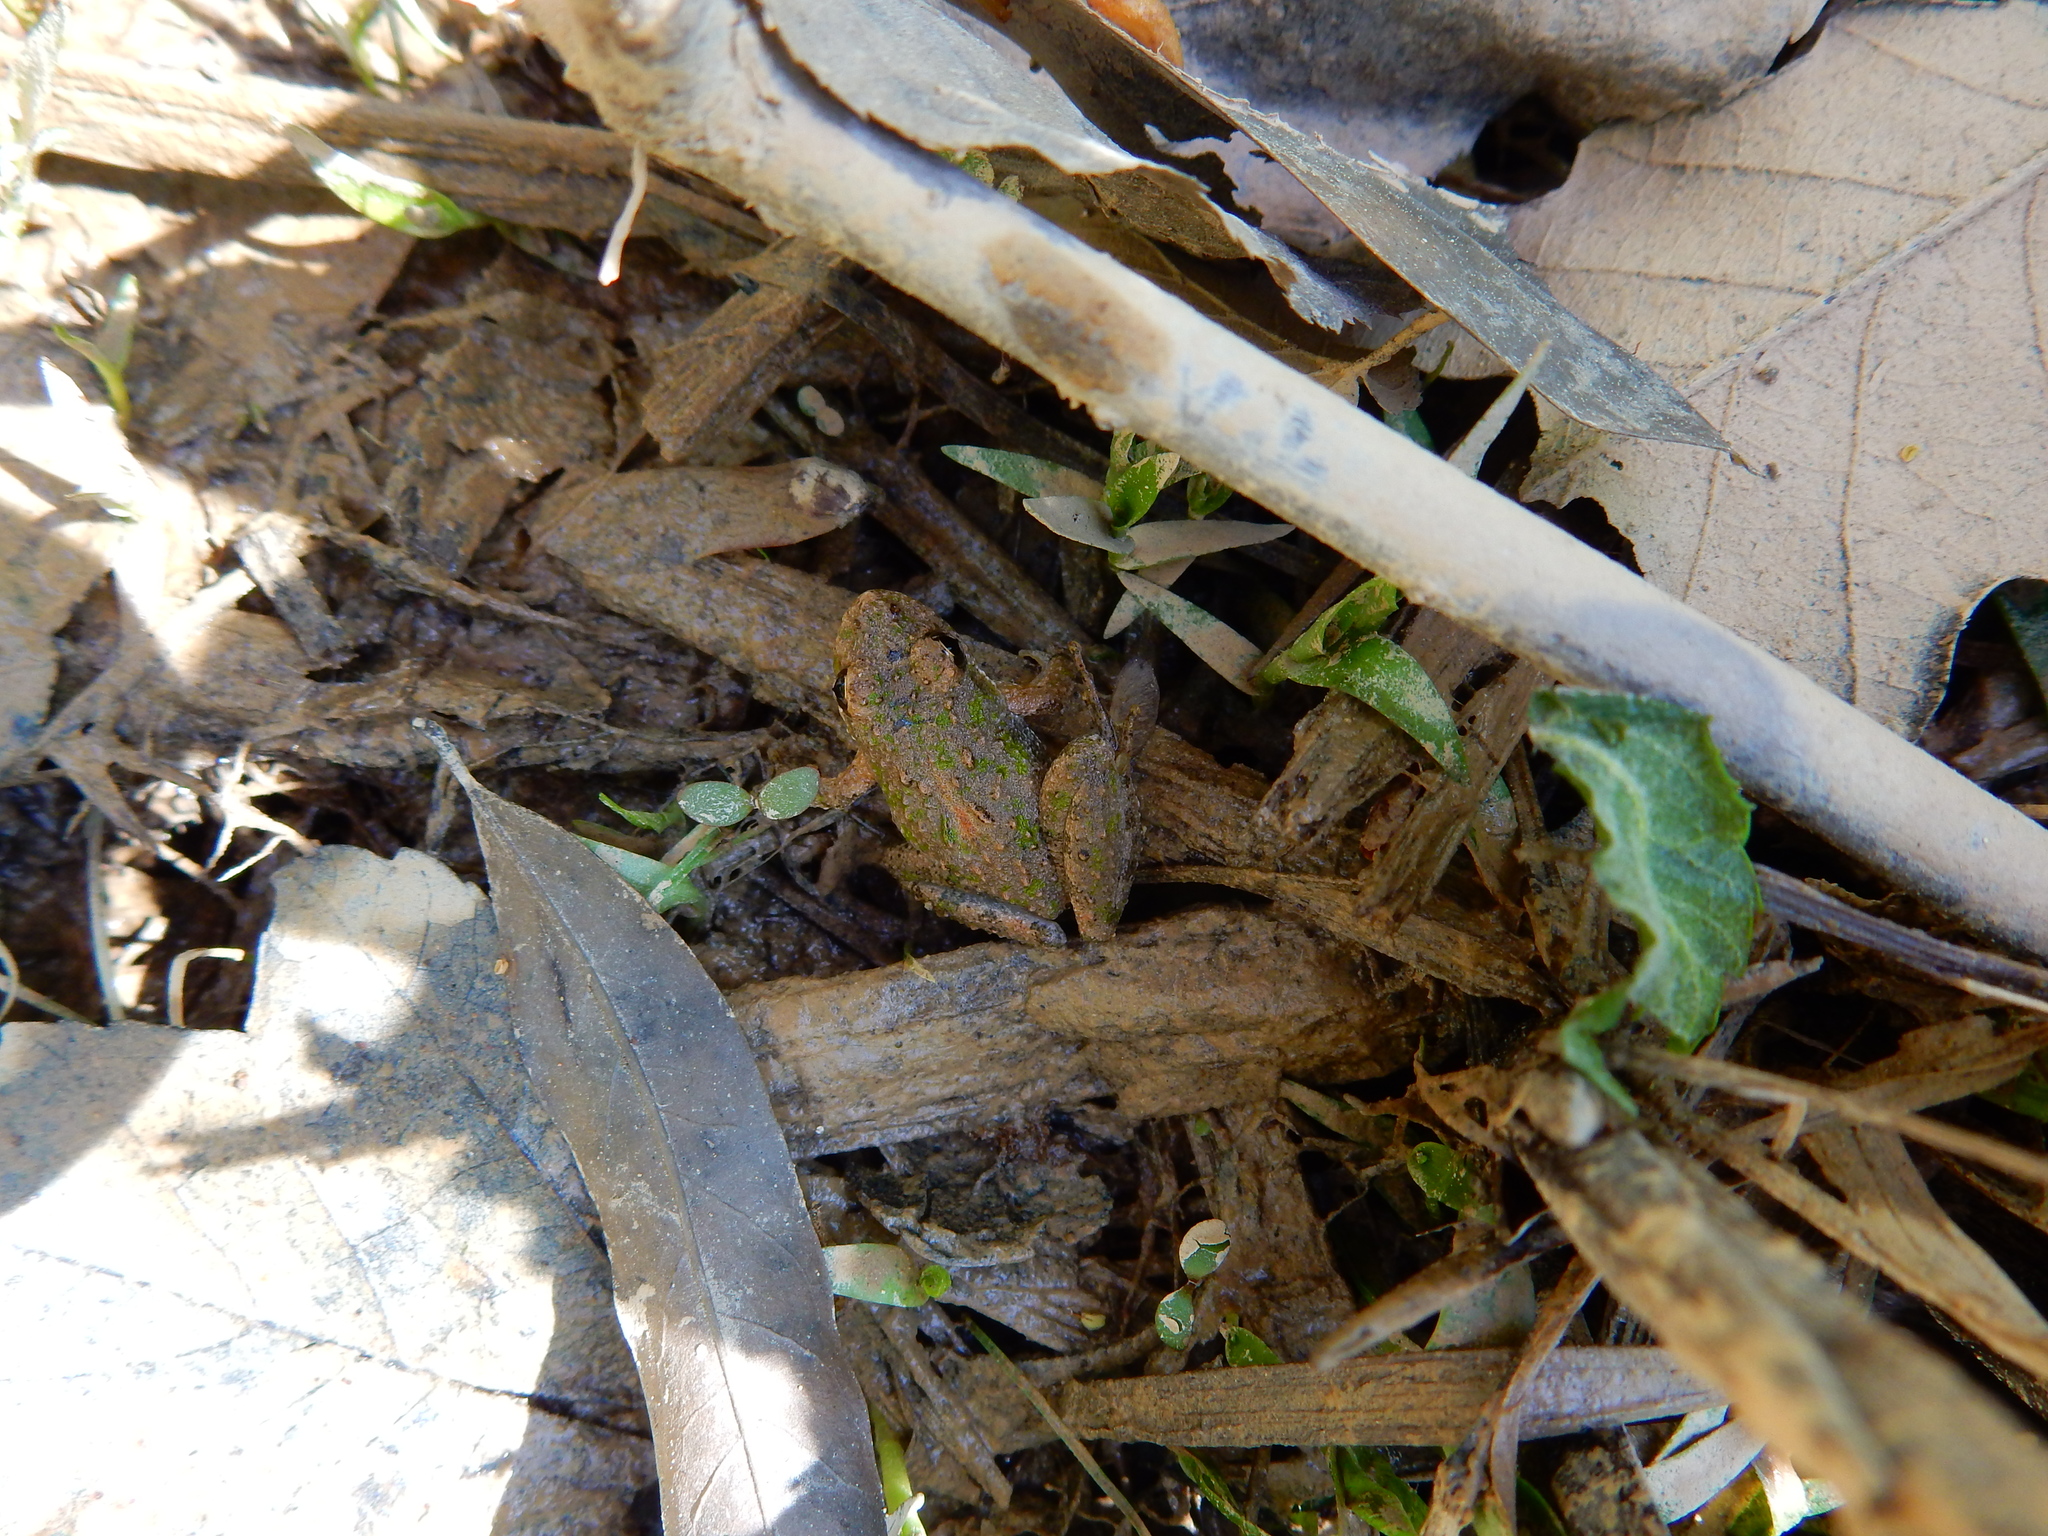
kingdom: Animalia
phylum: Chordata
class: Amphibia
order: Anura
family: Hylidae
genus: Acris
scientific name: Acris crepitans
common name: Northern cricket frog
